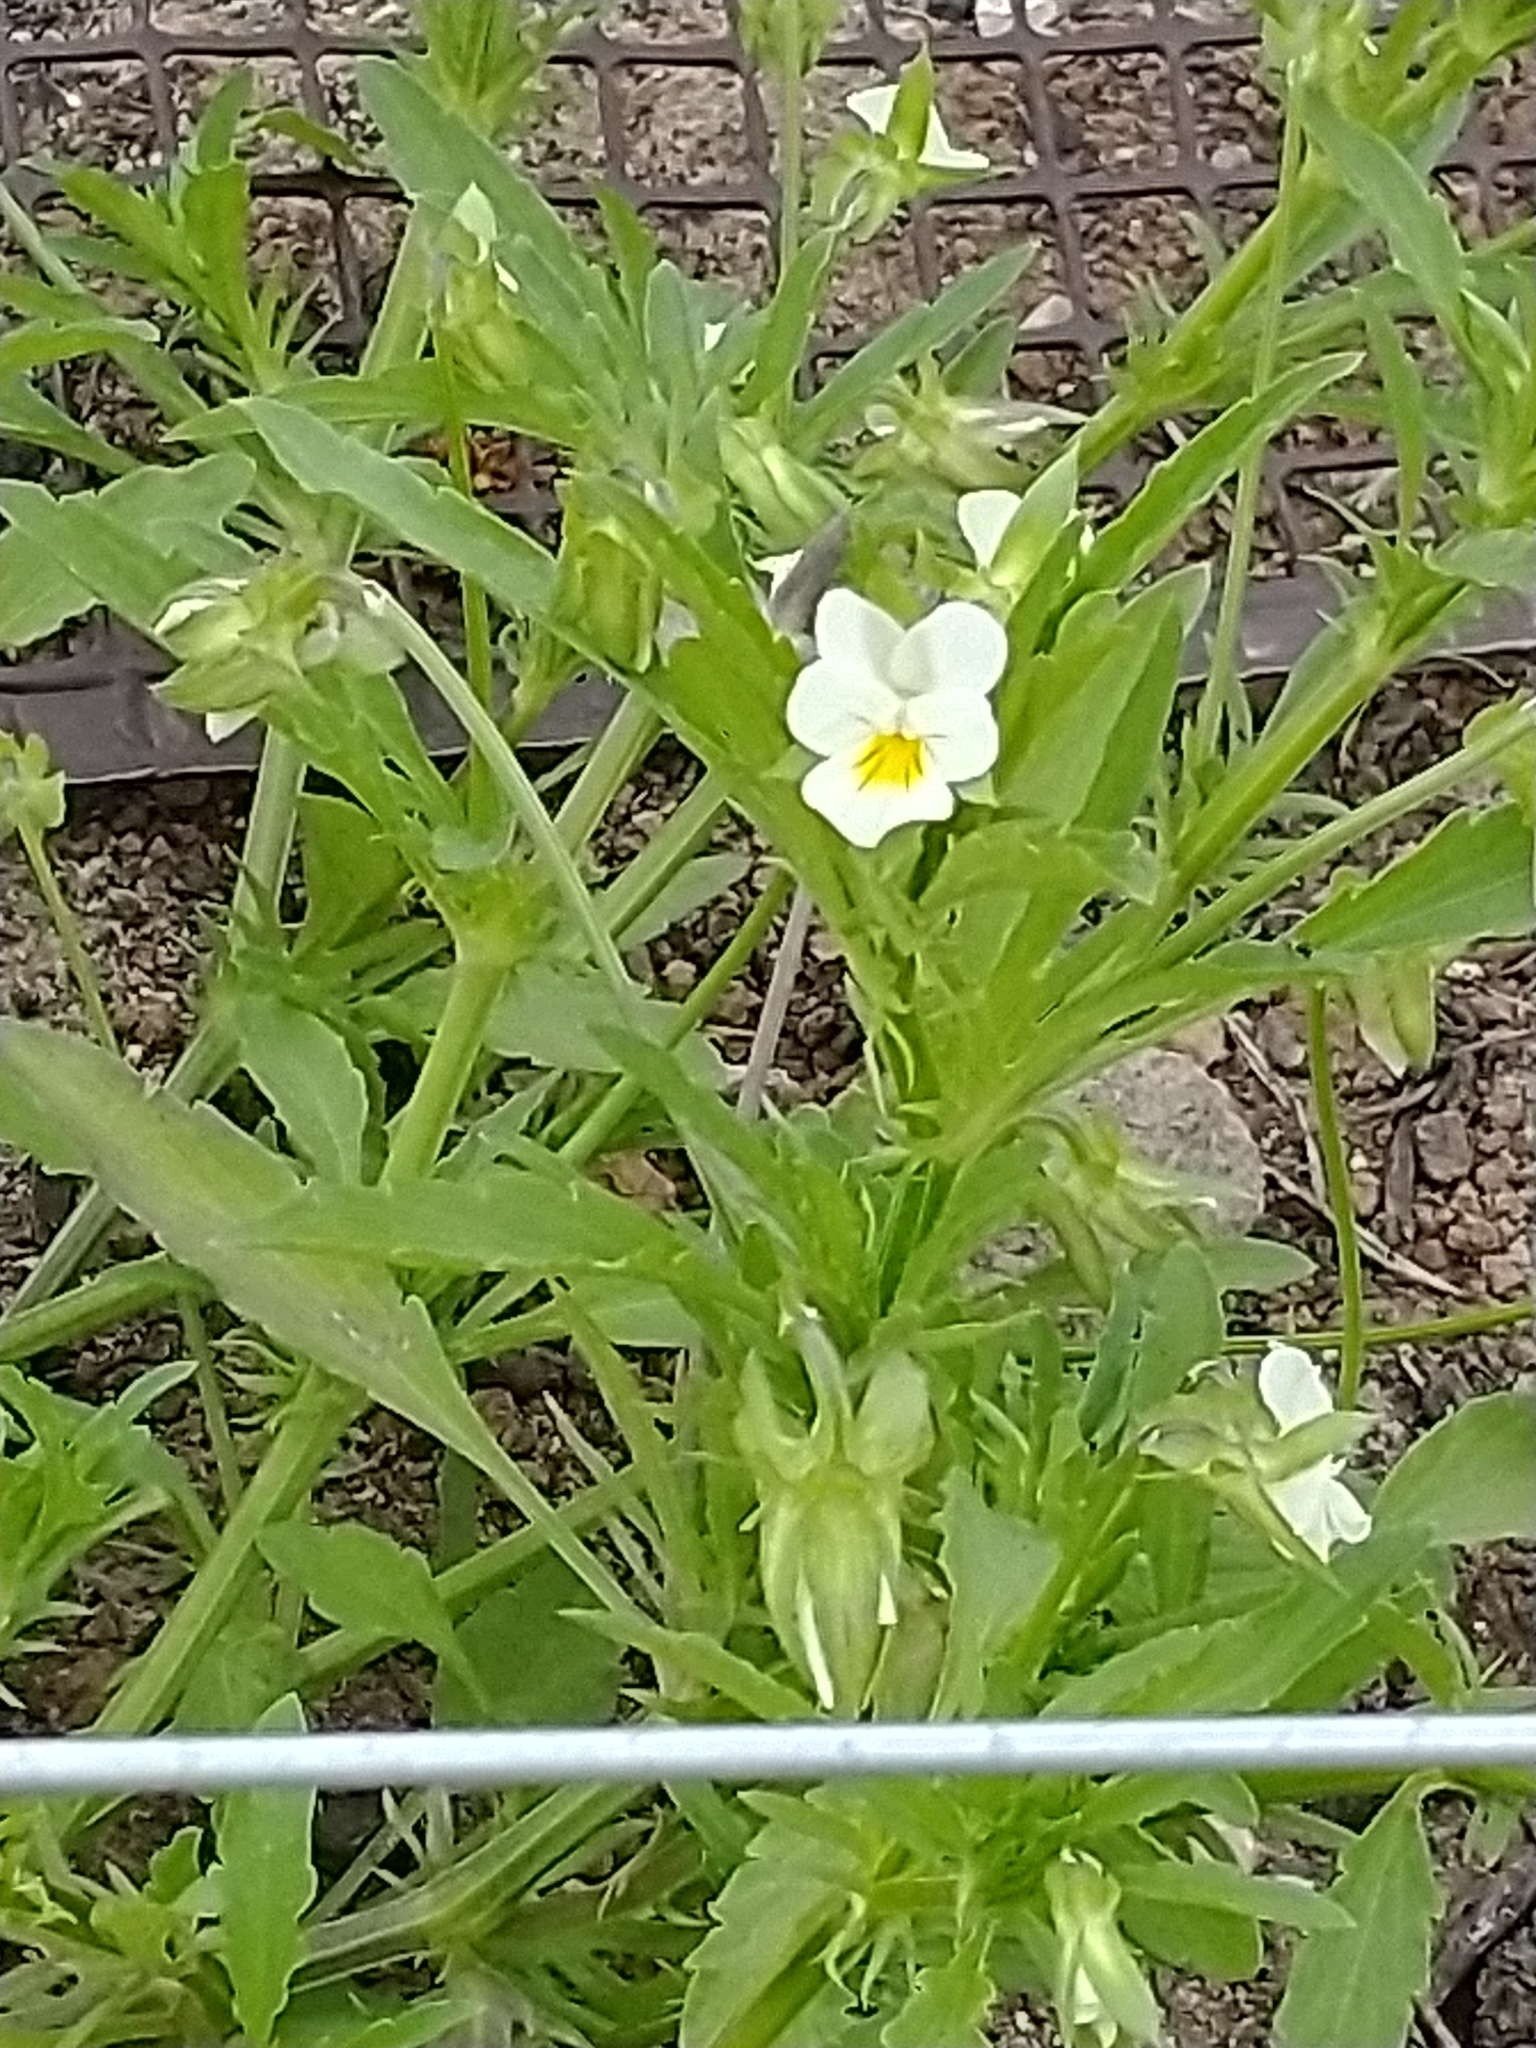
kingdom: Plantae
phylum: Tracheophyta
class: Magnoliopsida
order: Malpighiales
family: Violaceae
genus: Viola
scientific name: Viola arvensis
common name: Field pansy
